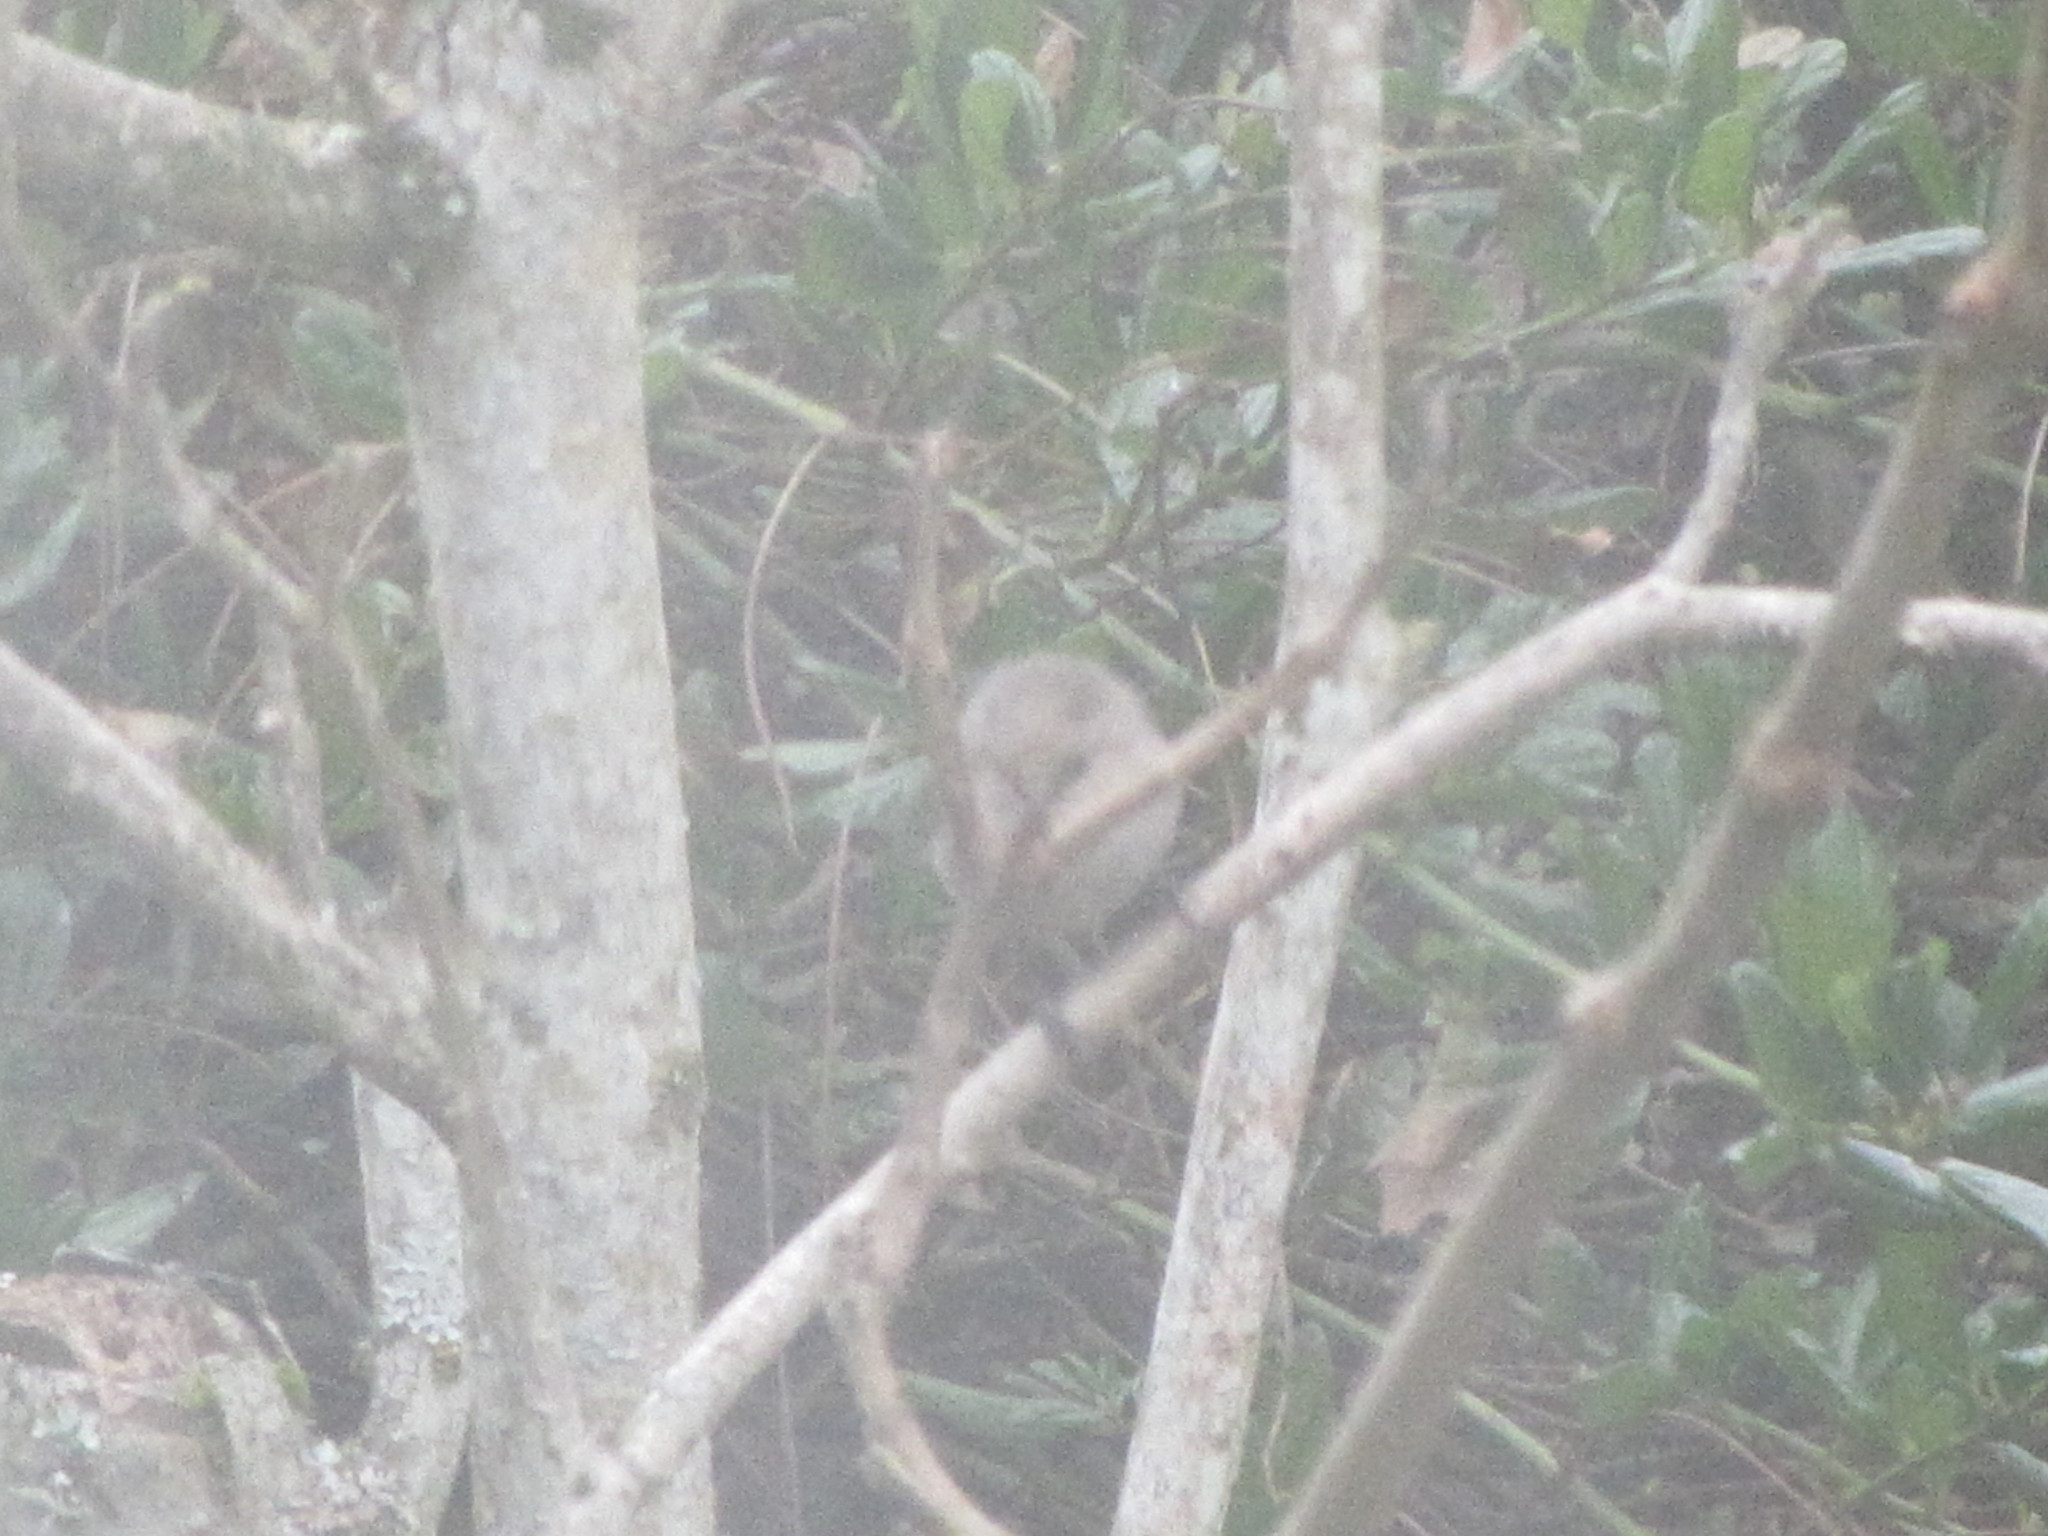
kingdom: Animalia
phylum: Chordata
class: Aves
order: Passeriformes
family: Aegithalidae
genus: Psaltriparus
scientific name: Psaltriparus minimus
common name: American bushtit
